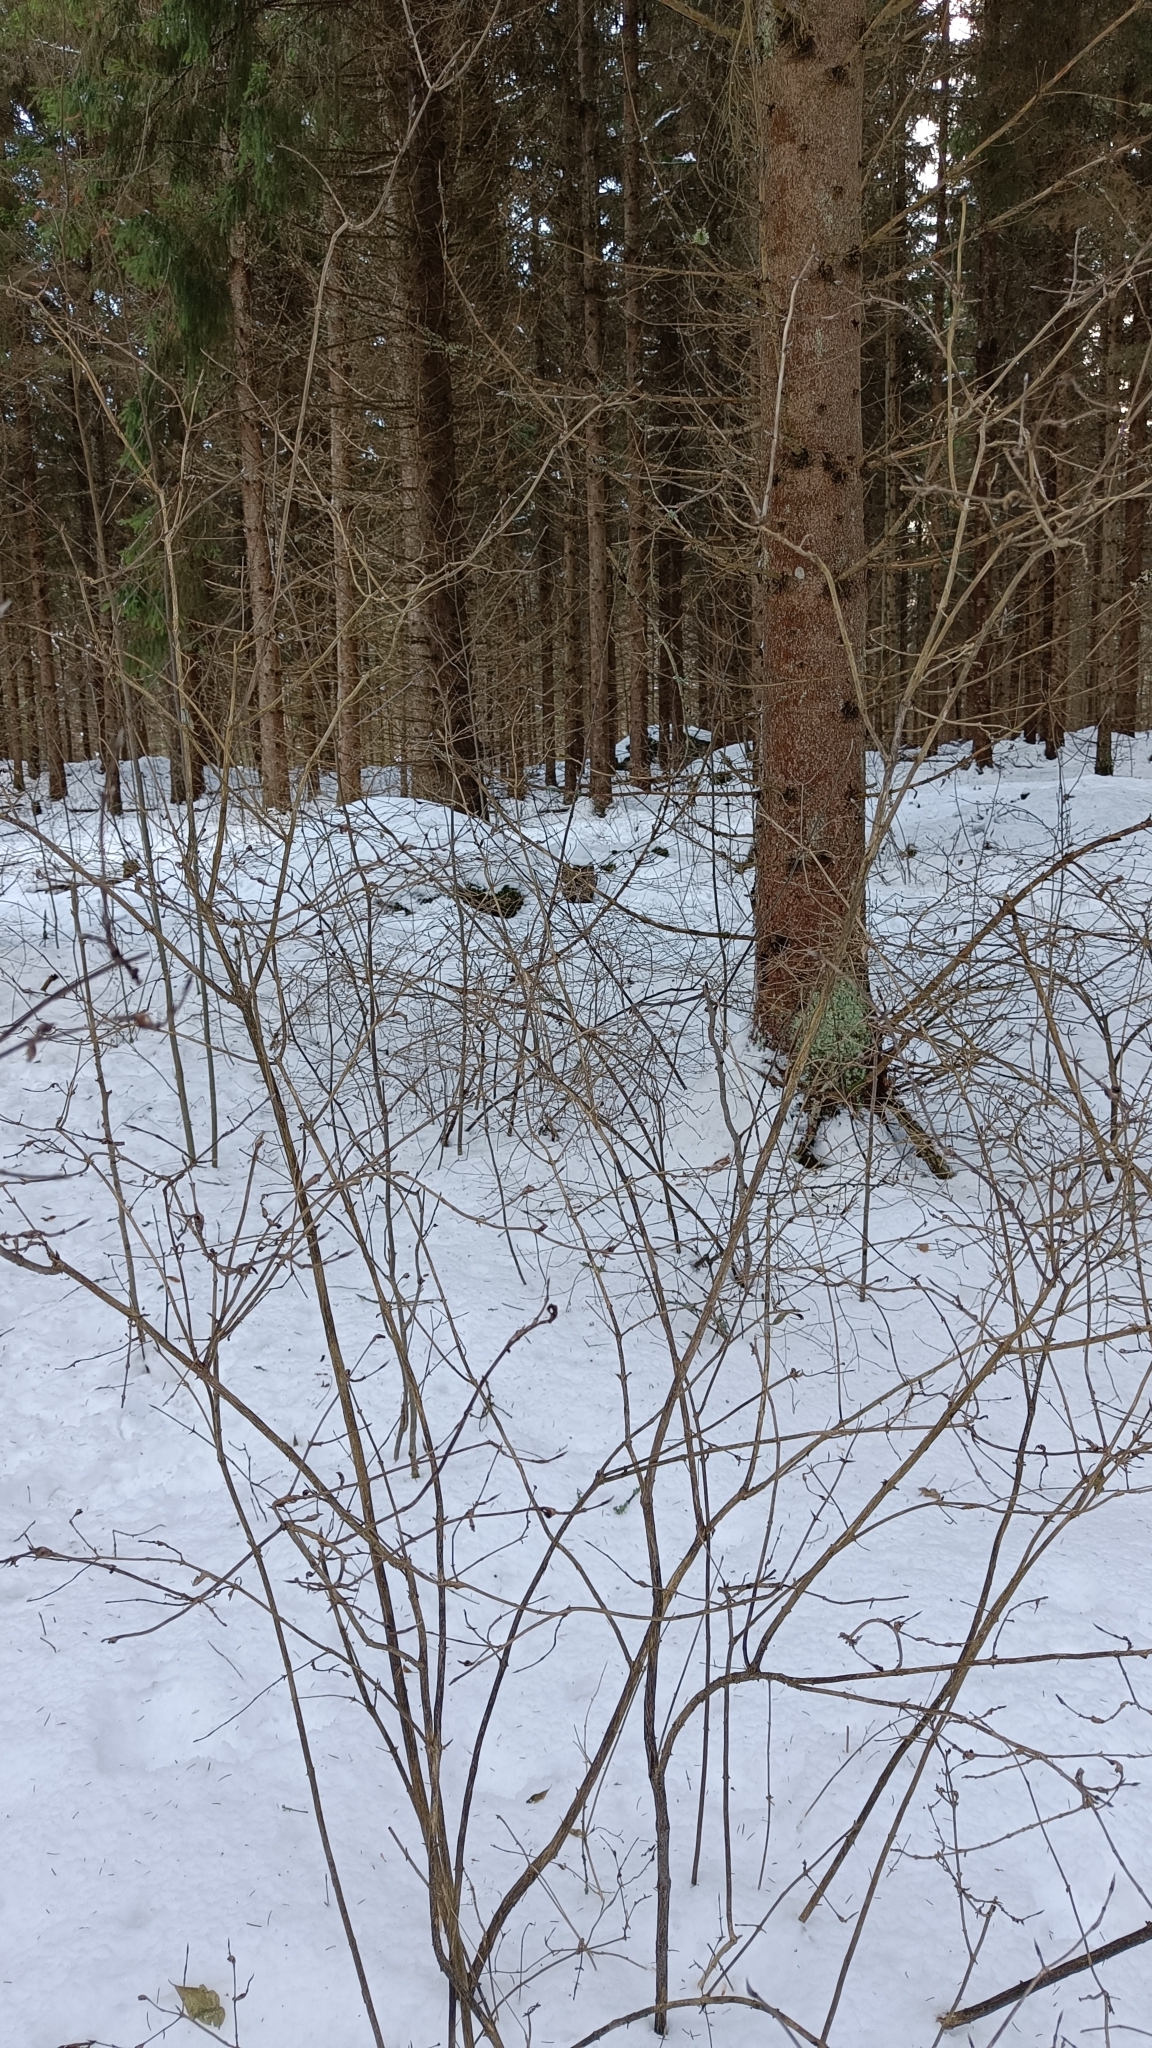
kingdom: Animalia
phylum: Arthropoda
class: Insecta
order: Hymenoptera
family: Tenthredinidae
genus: Hoplocampoides
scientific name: Hoplocampoides xylostei
